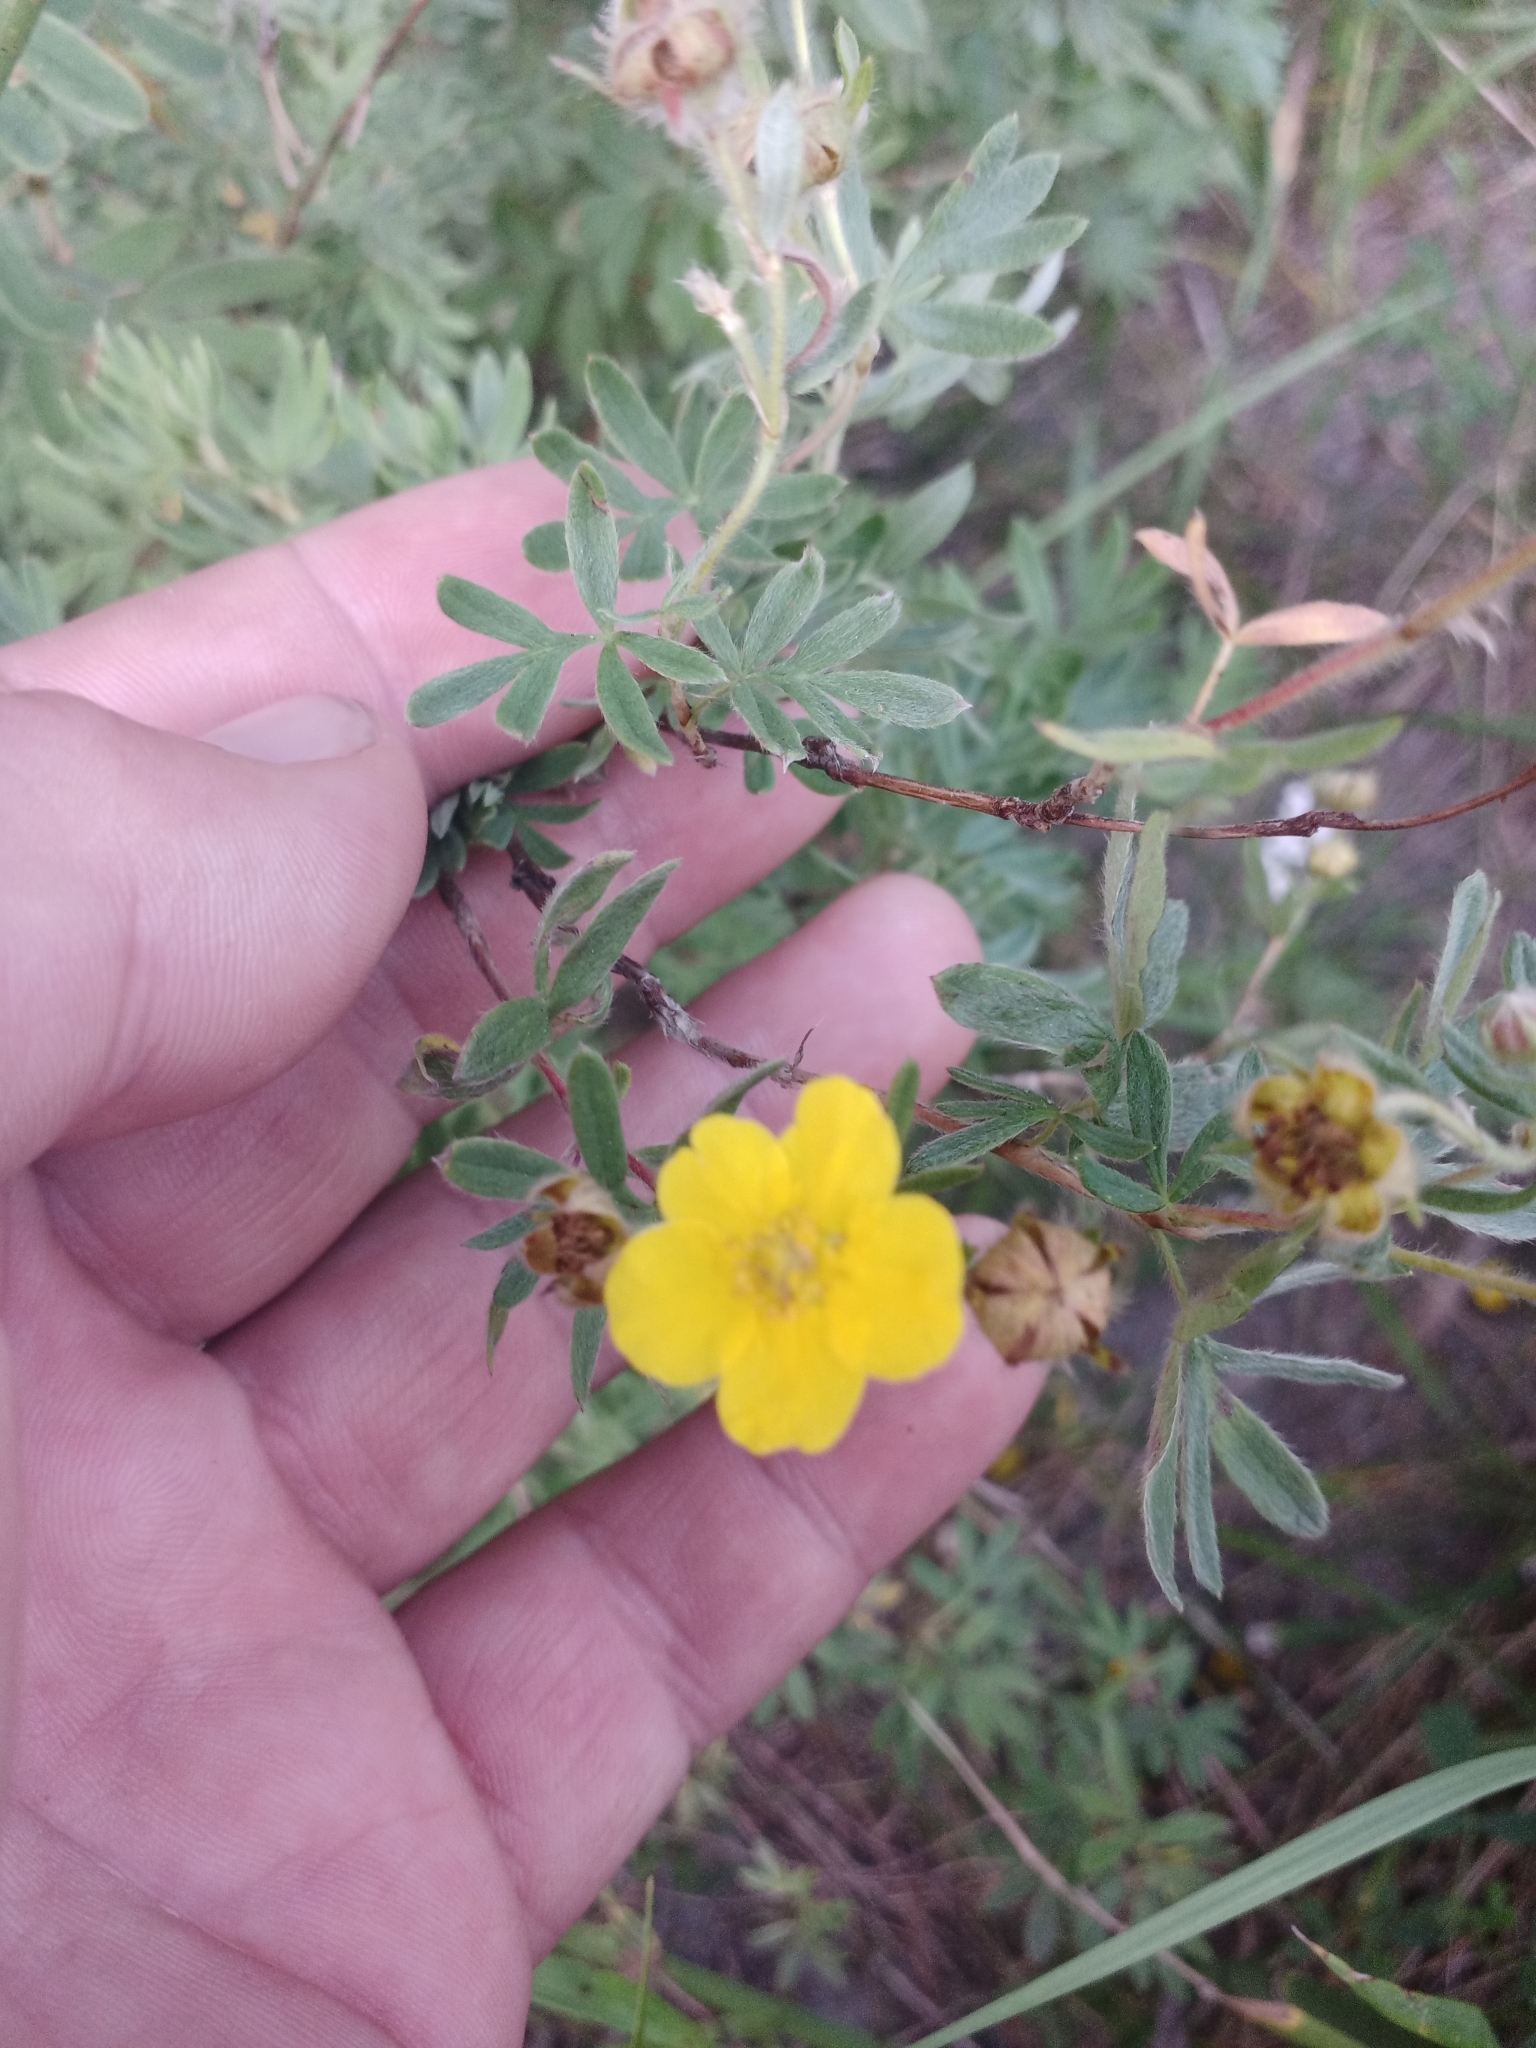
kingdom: Plantae
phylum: Tracheophyta
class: Magnoliopsida
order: Rosales
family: Rosaceae
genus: Dasiphora
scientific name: Dasiphora fruticosa
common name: Shrubby cinquefoil
